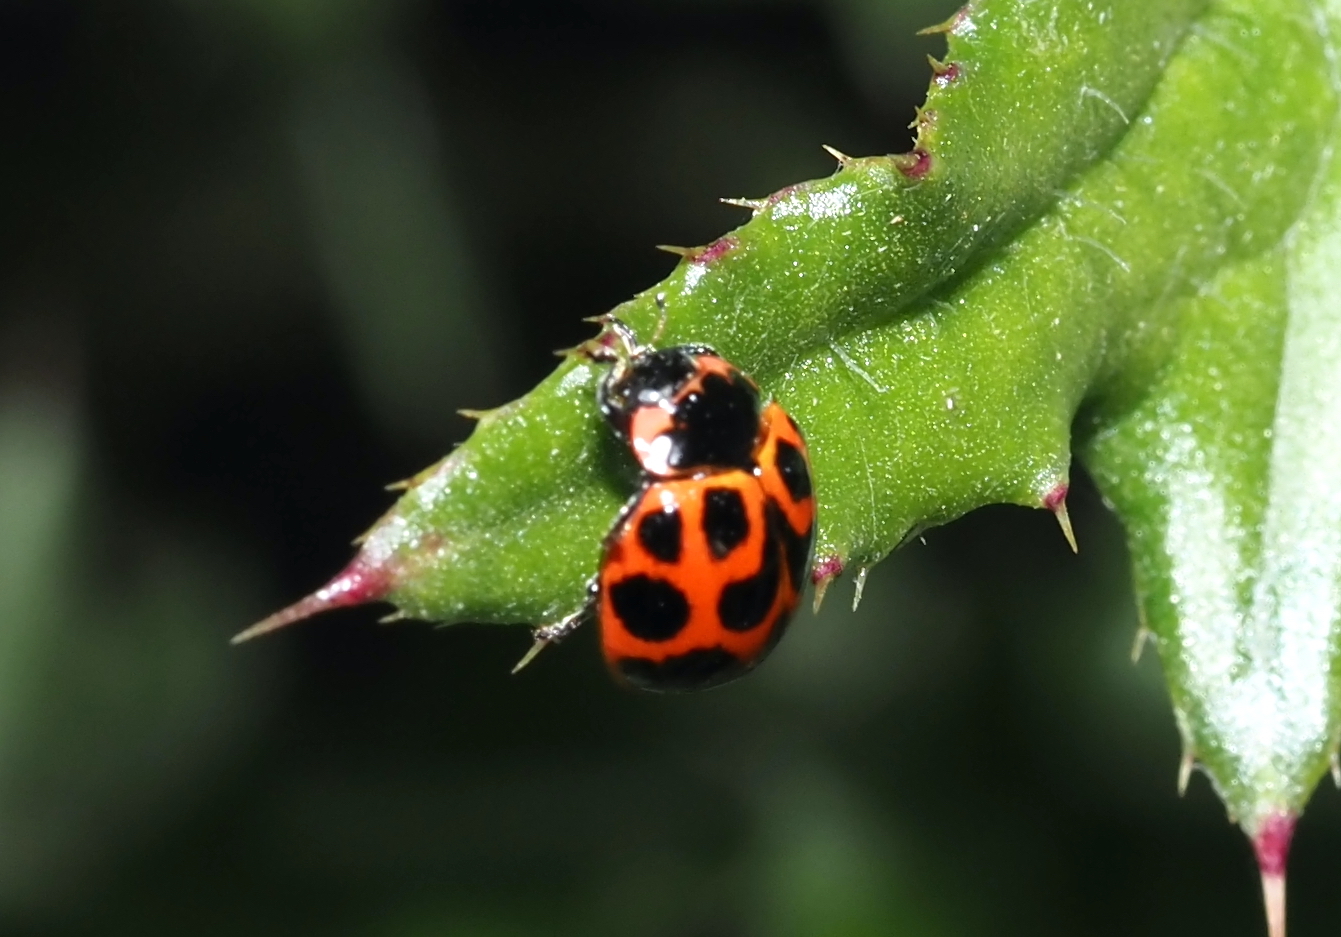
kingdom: Animalia
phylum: Arthropoda
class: Insecta
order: Coleoptera
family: Coccinellidae
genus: Neoharmonia
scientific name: Neoharmonia venusta
